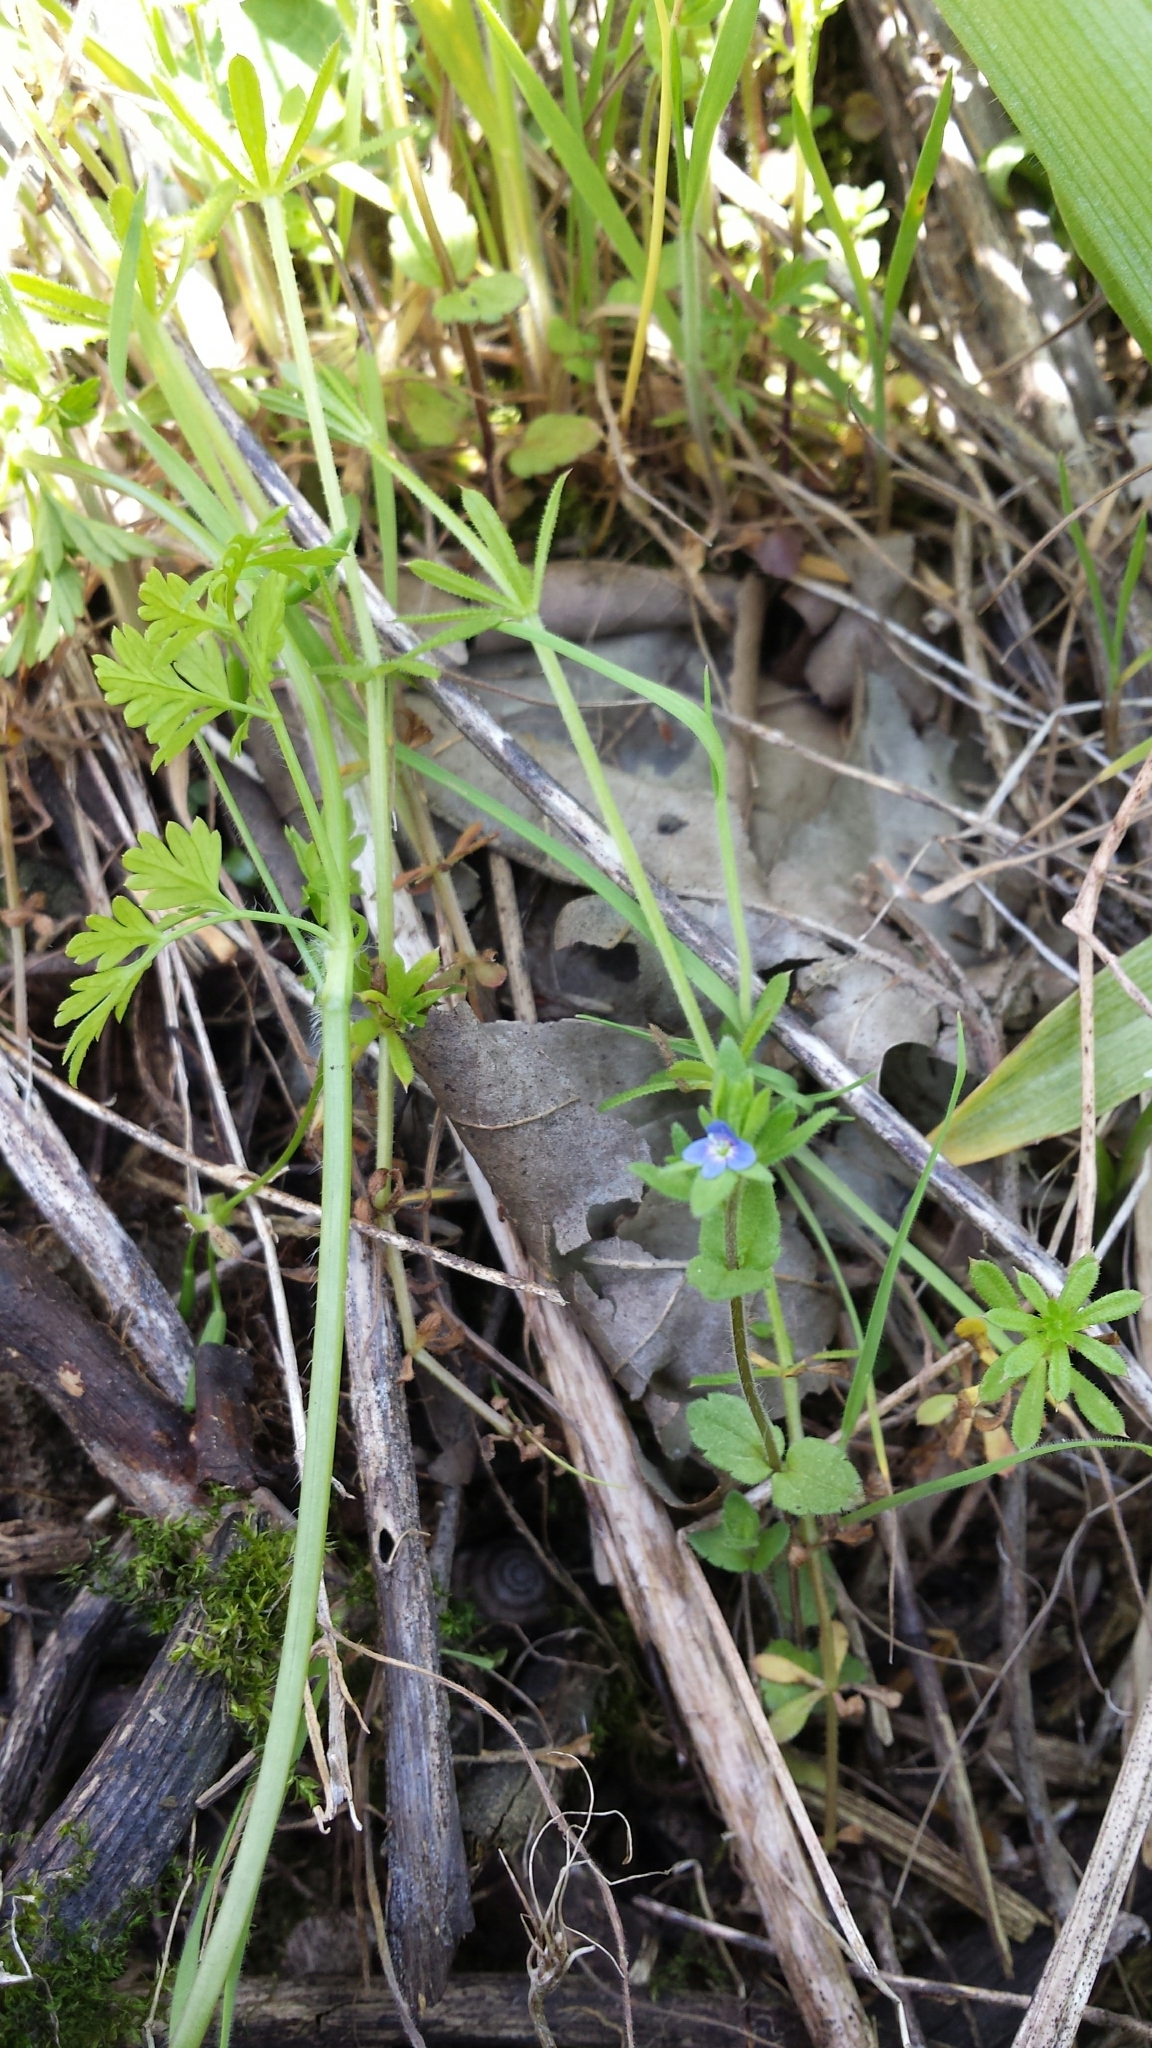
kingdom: Plantae
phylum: Tracheophyta
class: Magnoliopsida
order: Lamiales
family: Plantaginaceae
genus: Veronica
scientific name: Veronica arvensis
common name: Corn speedwell
